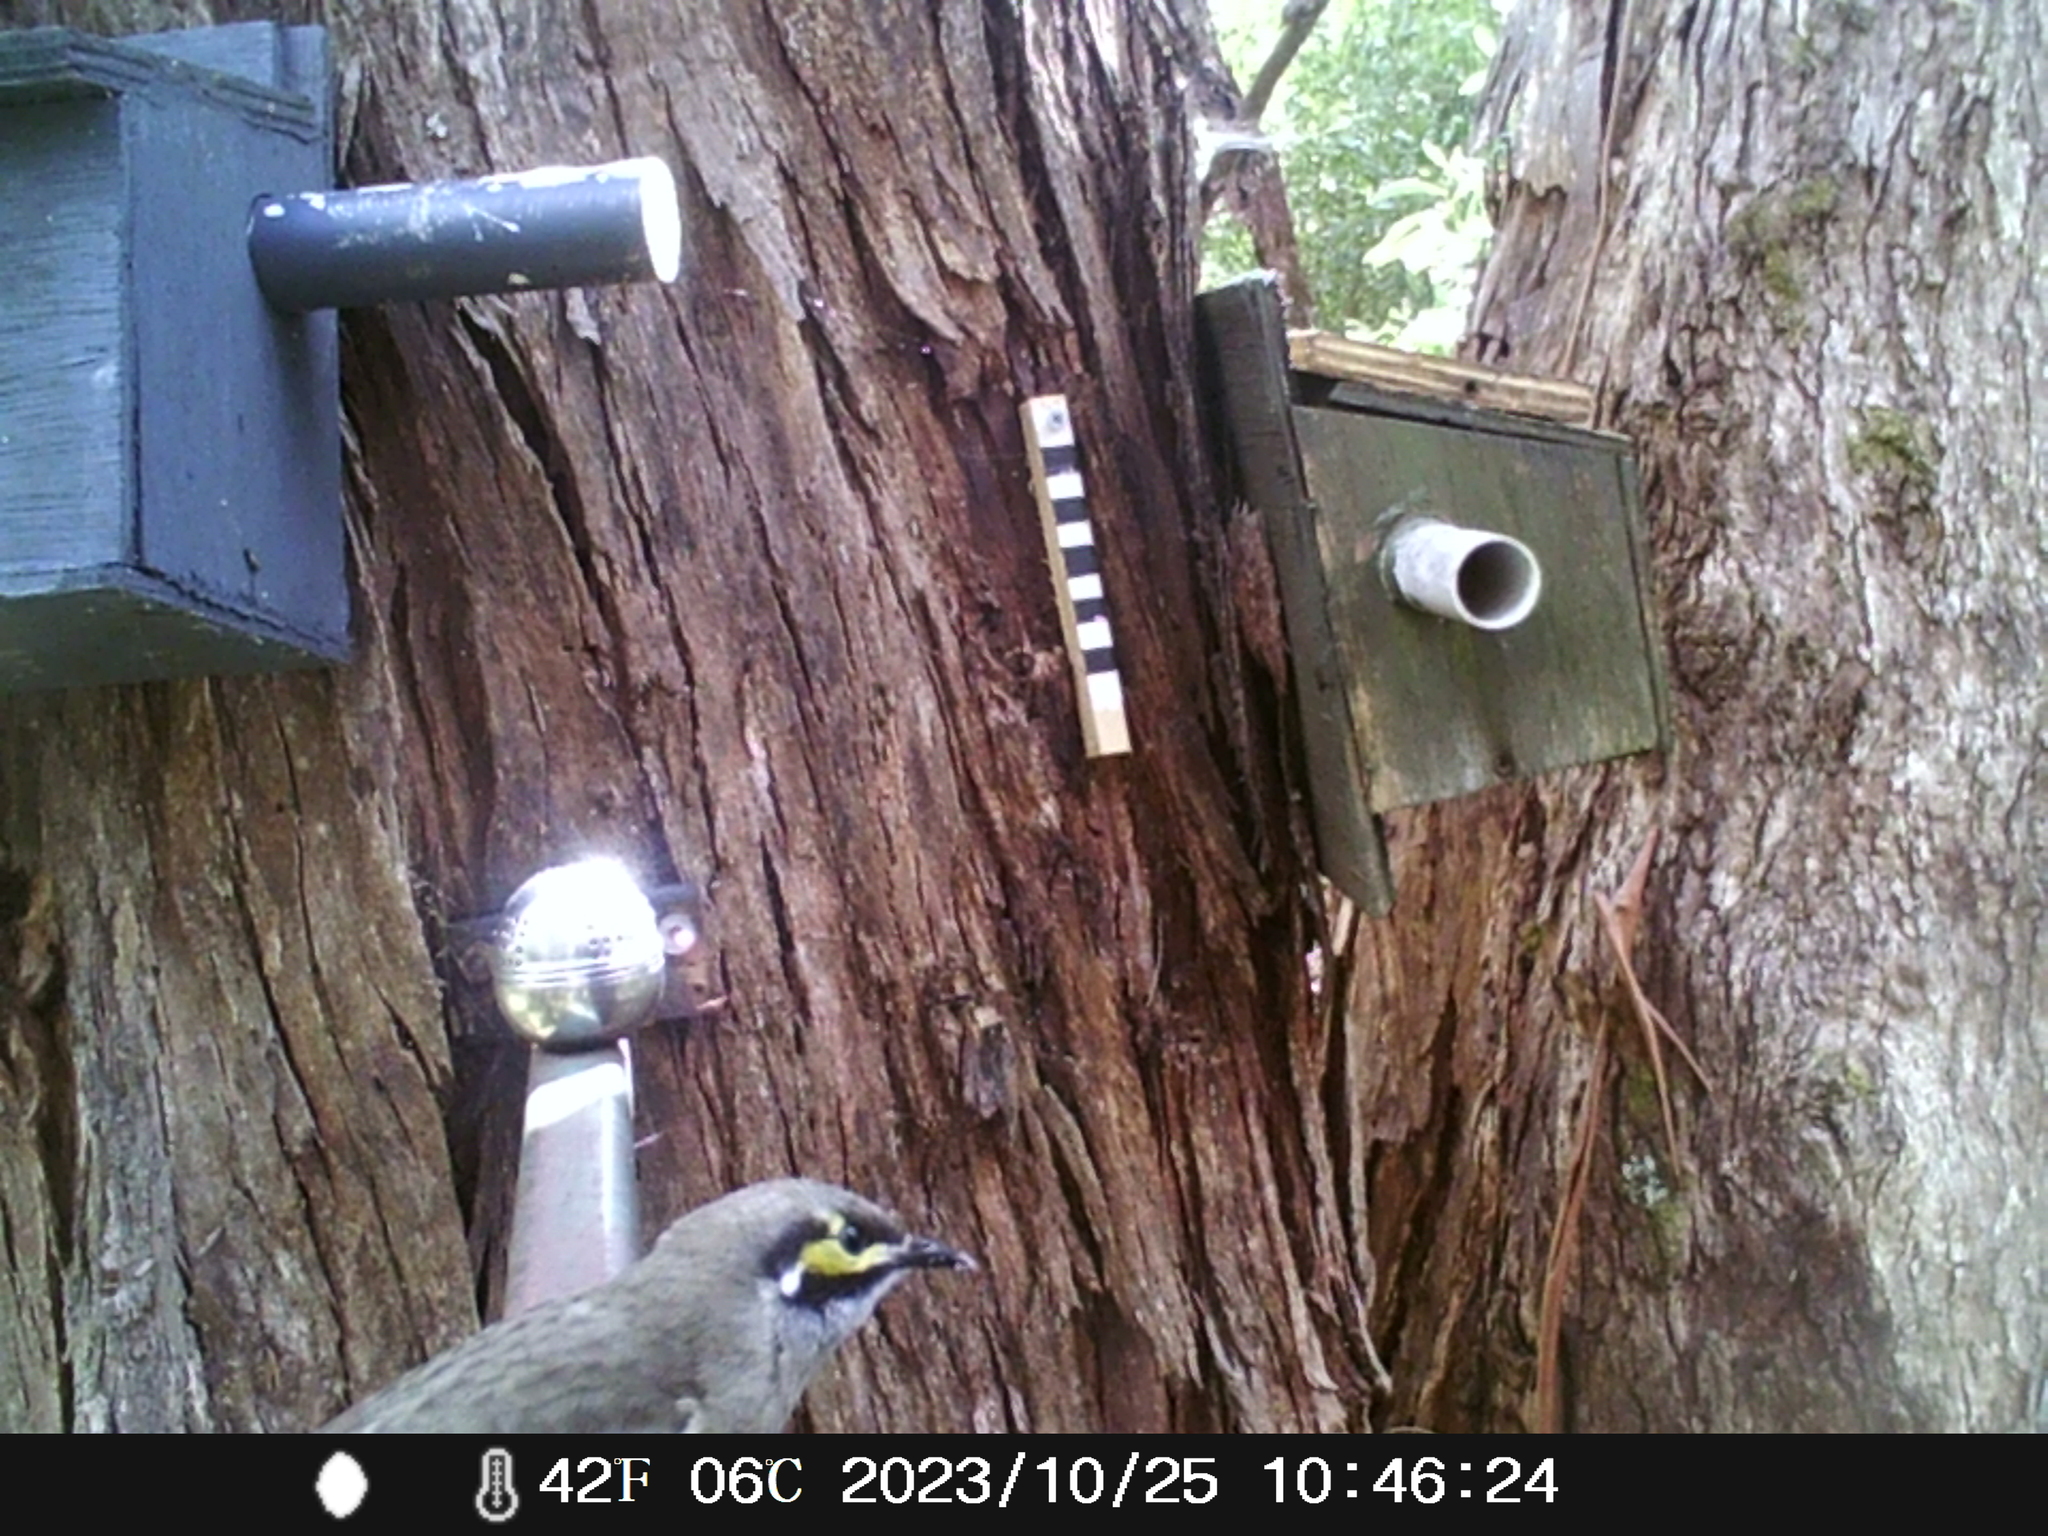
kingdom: Animalia
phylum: Chordata
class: Aves
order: Passeriformes
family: Meliphagidae
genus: Caligavis
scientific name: Caligavis chrysops
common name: Yellow-faced honeyeater
